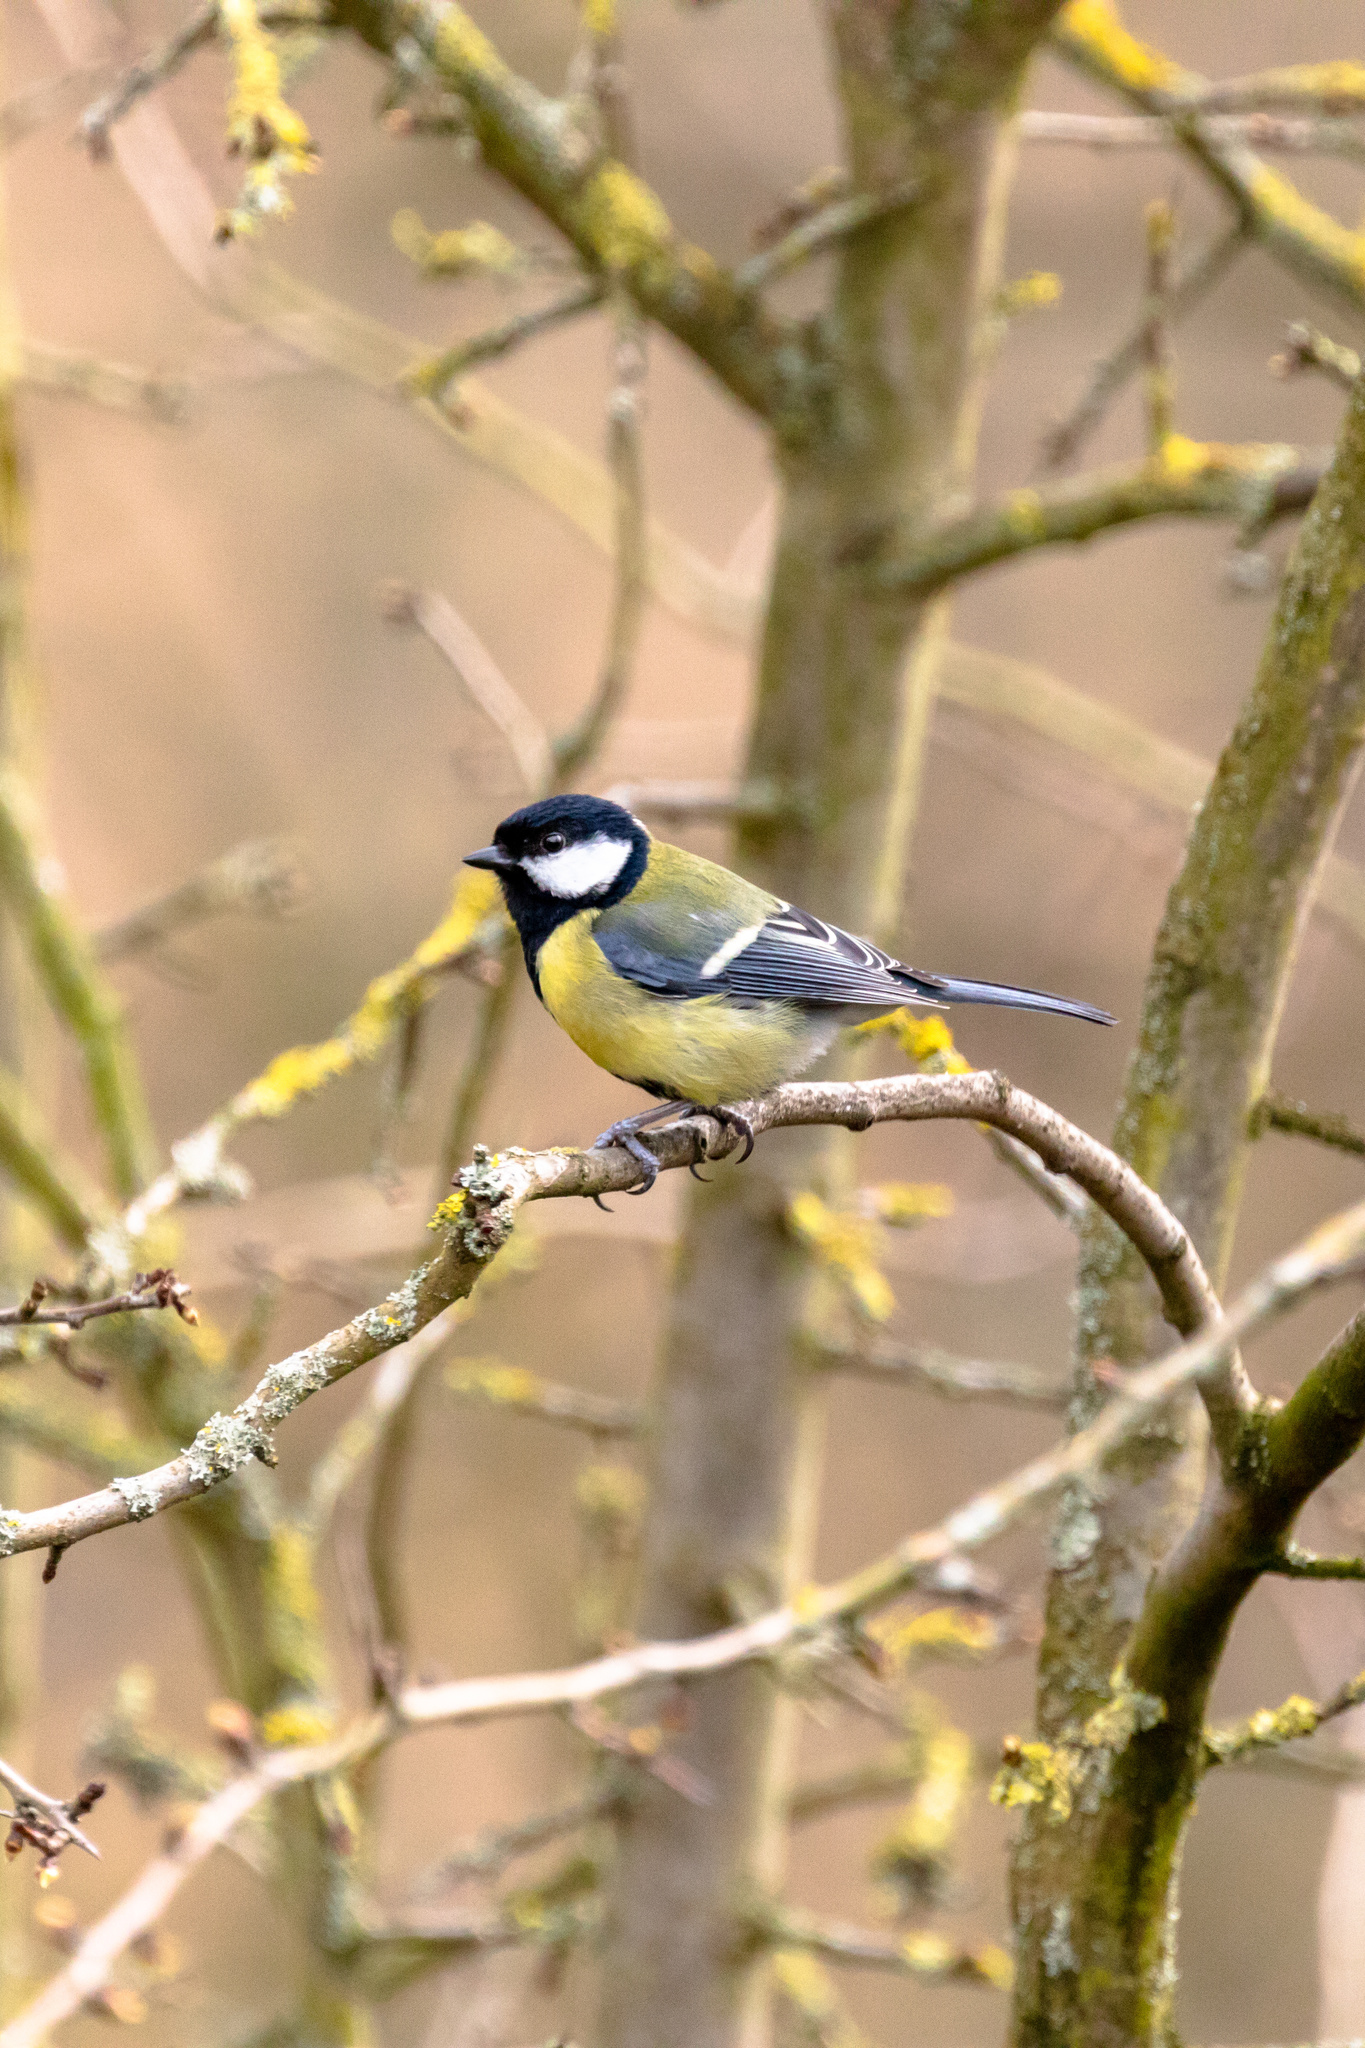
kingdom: Animalia
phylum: Chordata
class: Aves
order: Passeriformes
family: Paridae
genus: Parus
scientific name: Parus major
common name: Great tit
